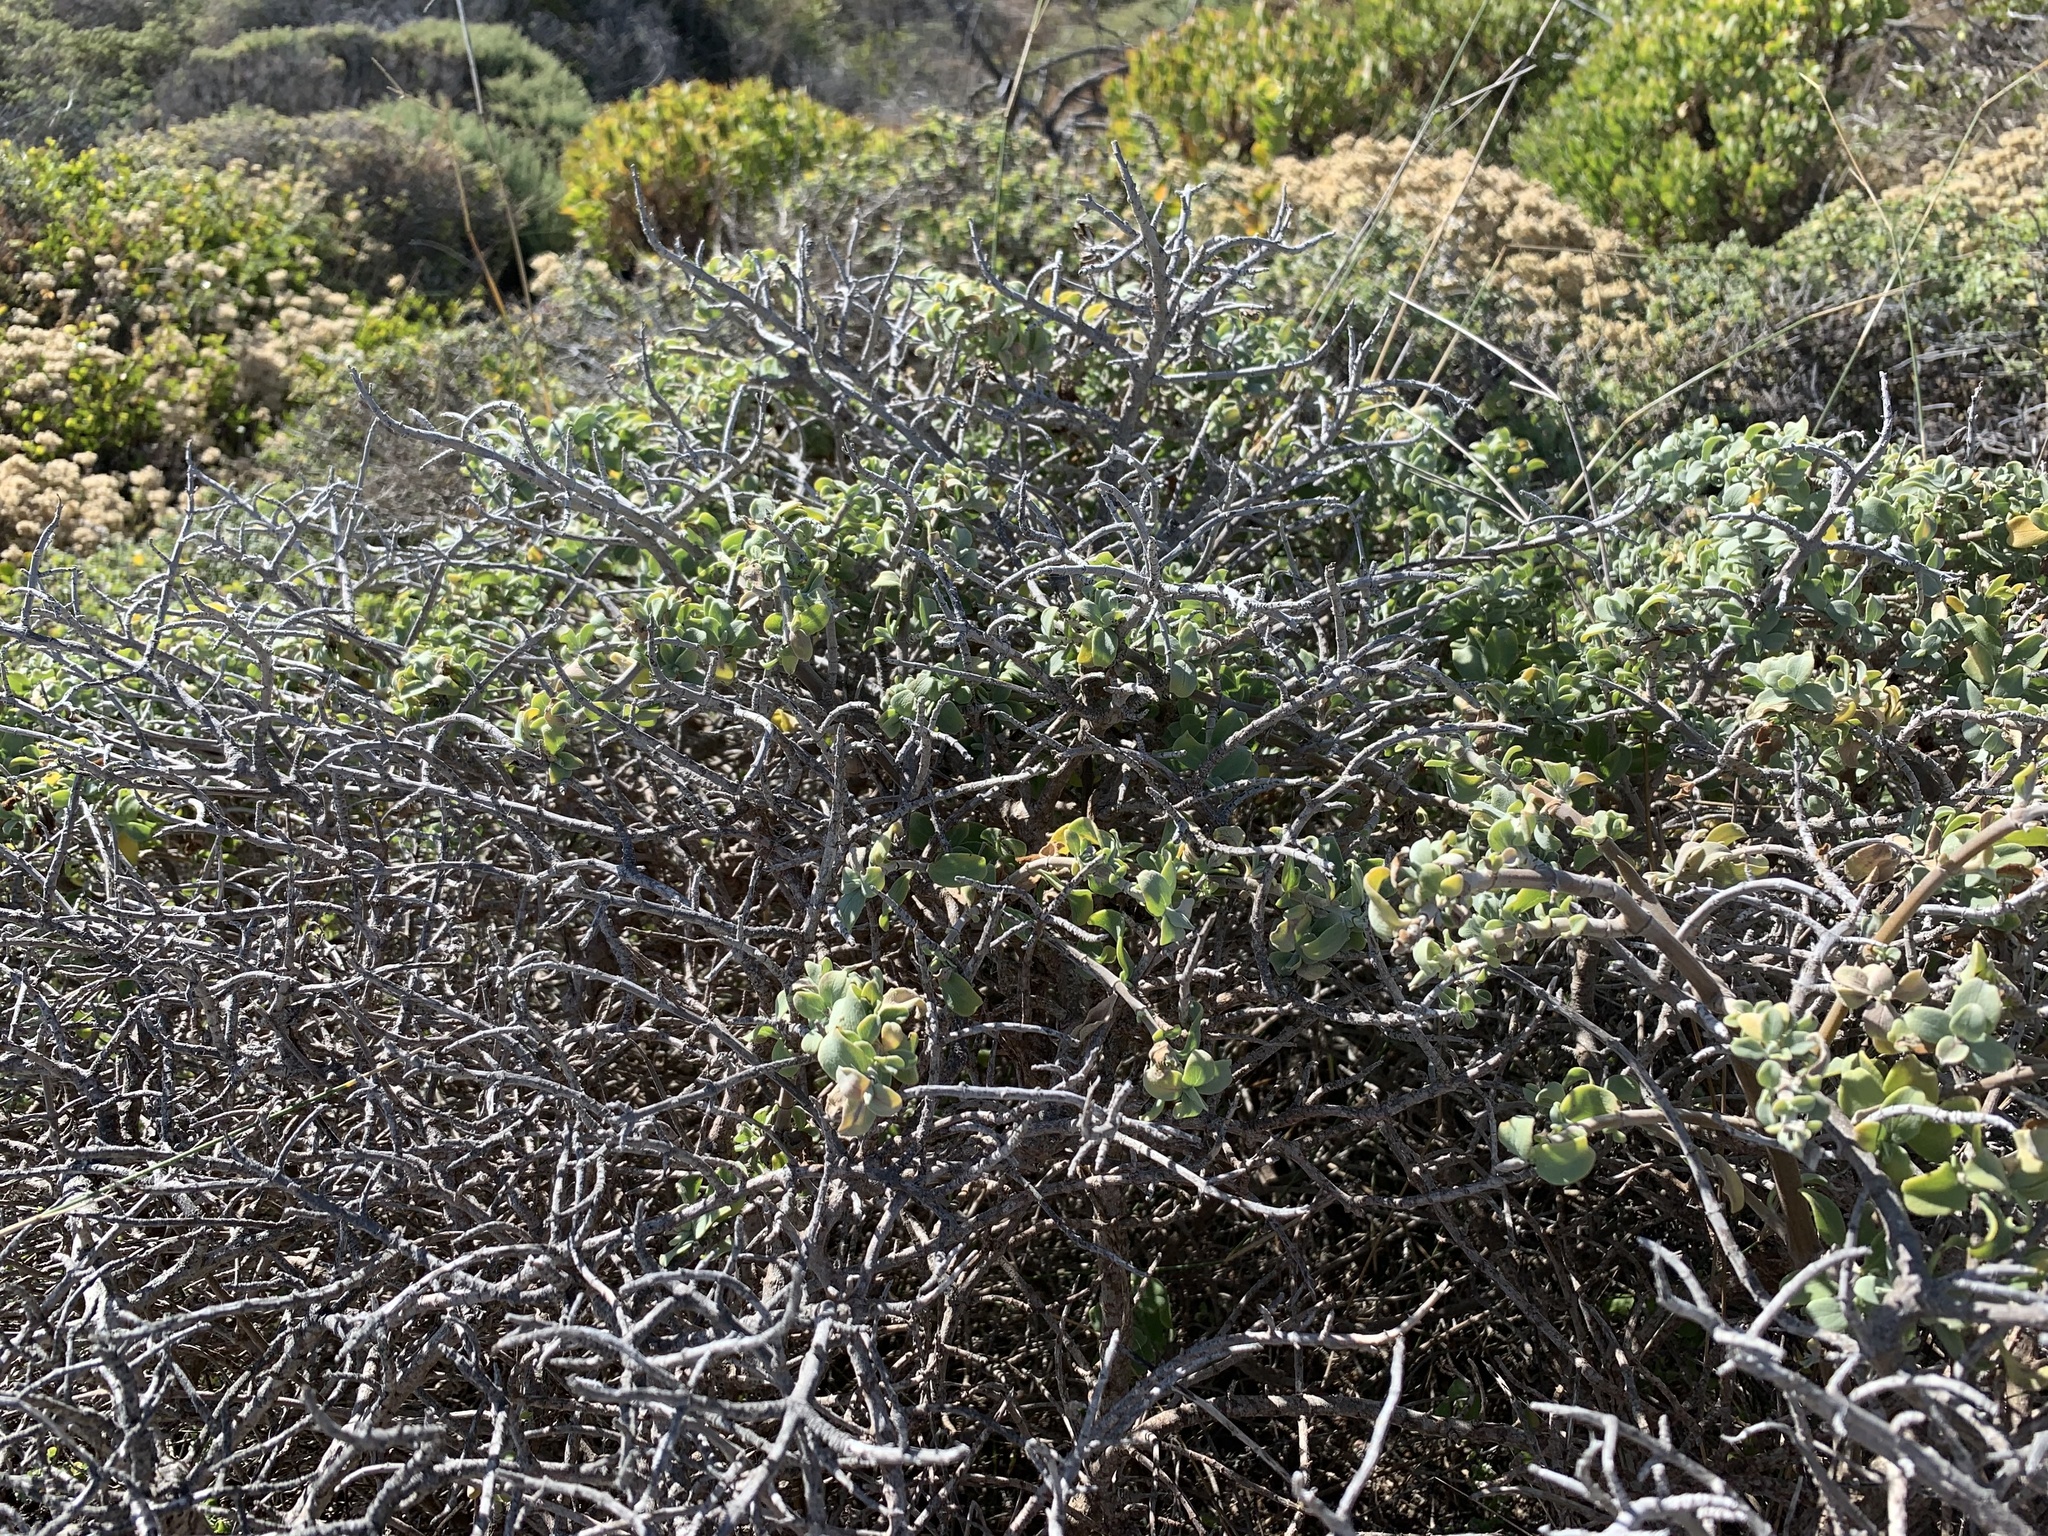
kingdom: Plantae
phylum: Tracheophyta
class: Magnoliopsida
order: Lamiales
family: Lamiaceae
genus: Salvia
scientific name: Salvia aurea
